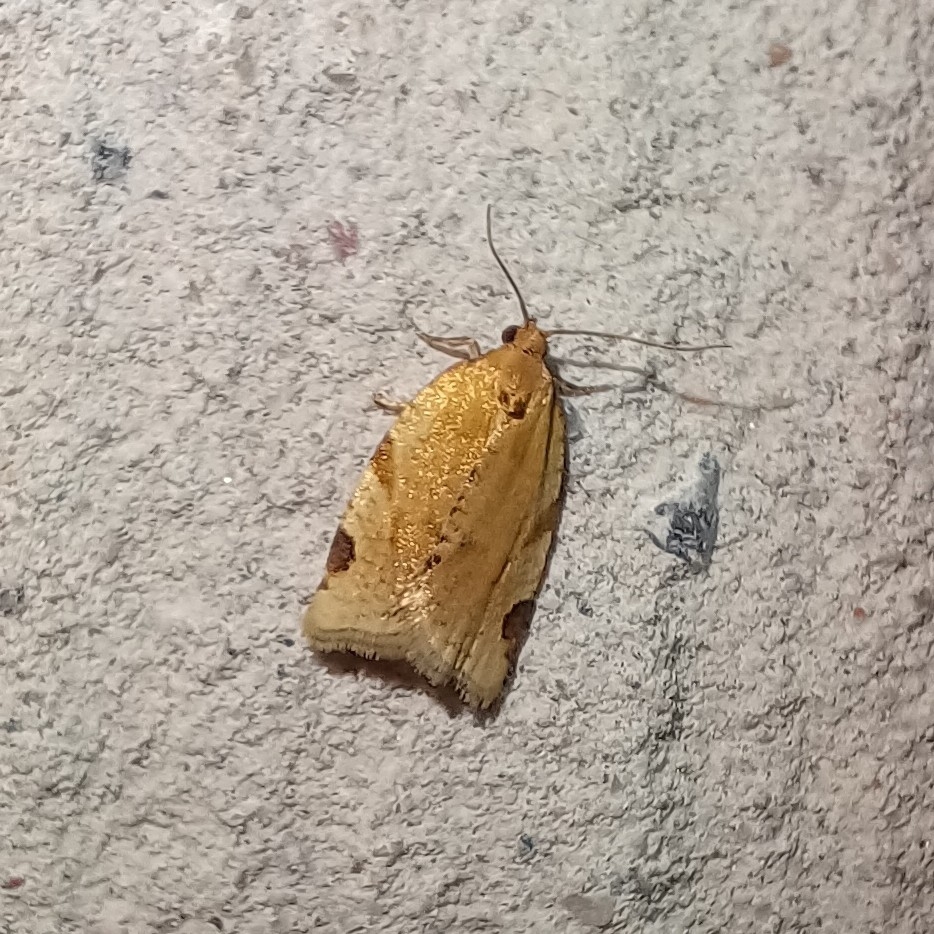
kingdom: Animalia
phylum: Arthropoda
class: Insecta
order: Lepidoptera
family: Tortricidae
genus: Paramesia
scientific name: Paramesia gnomana
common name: Small straw twist
